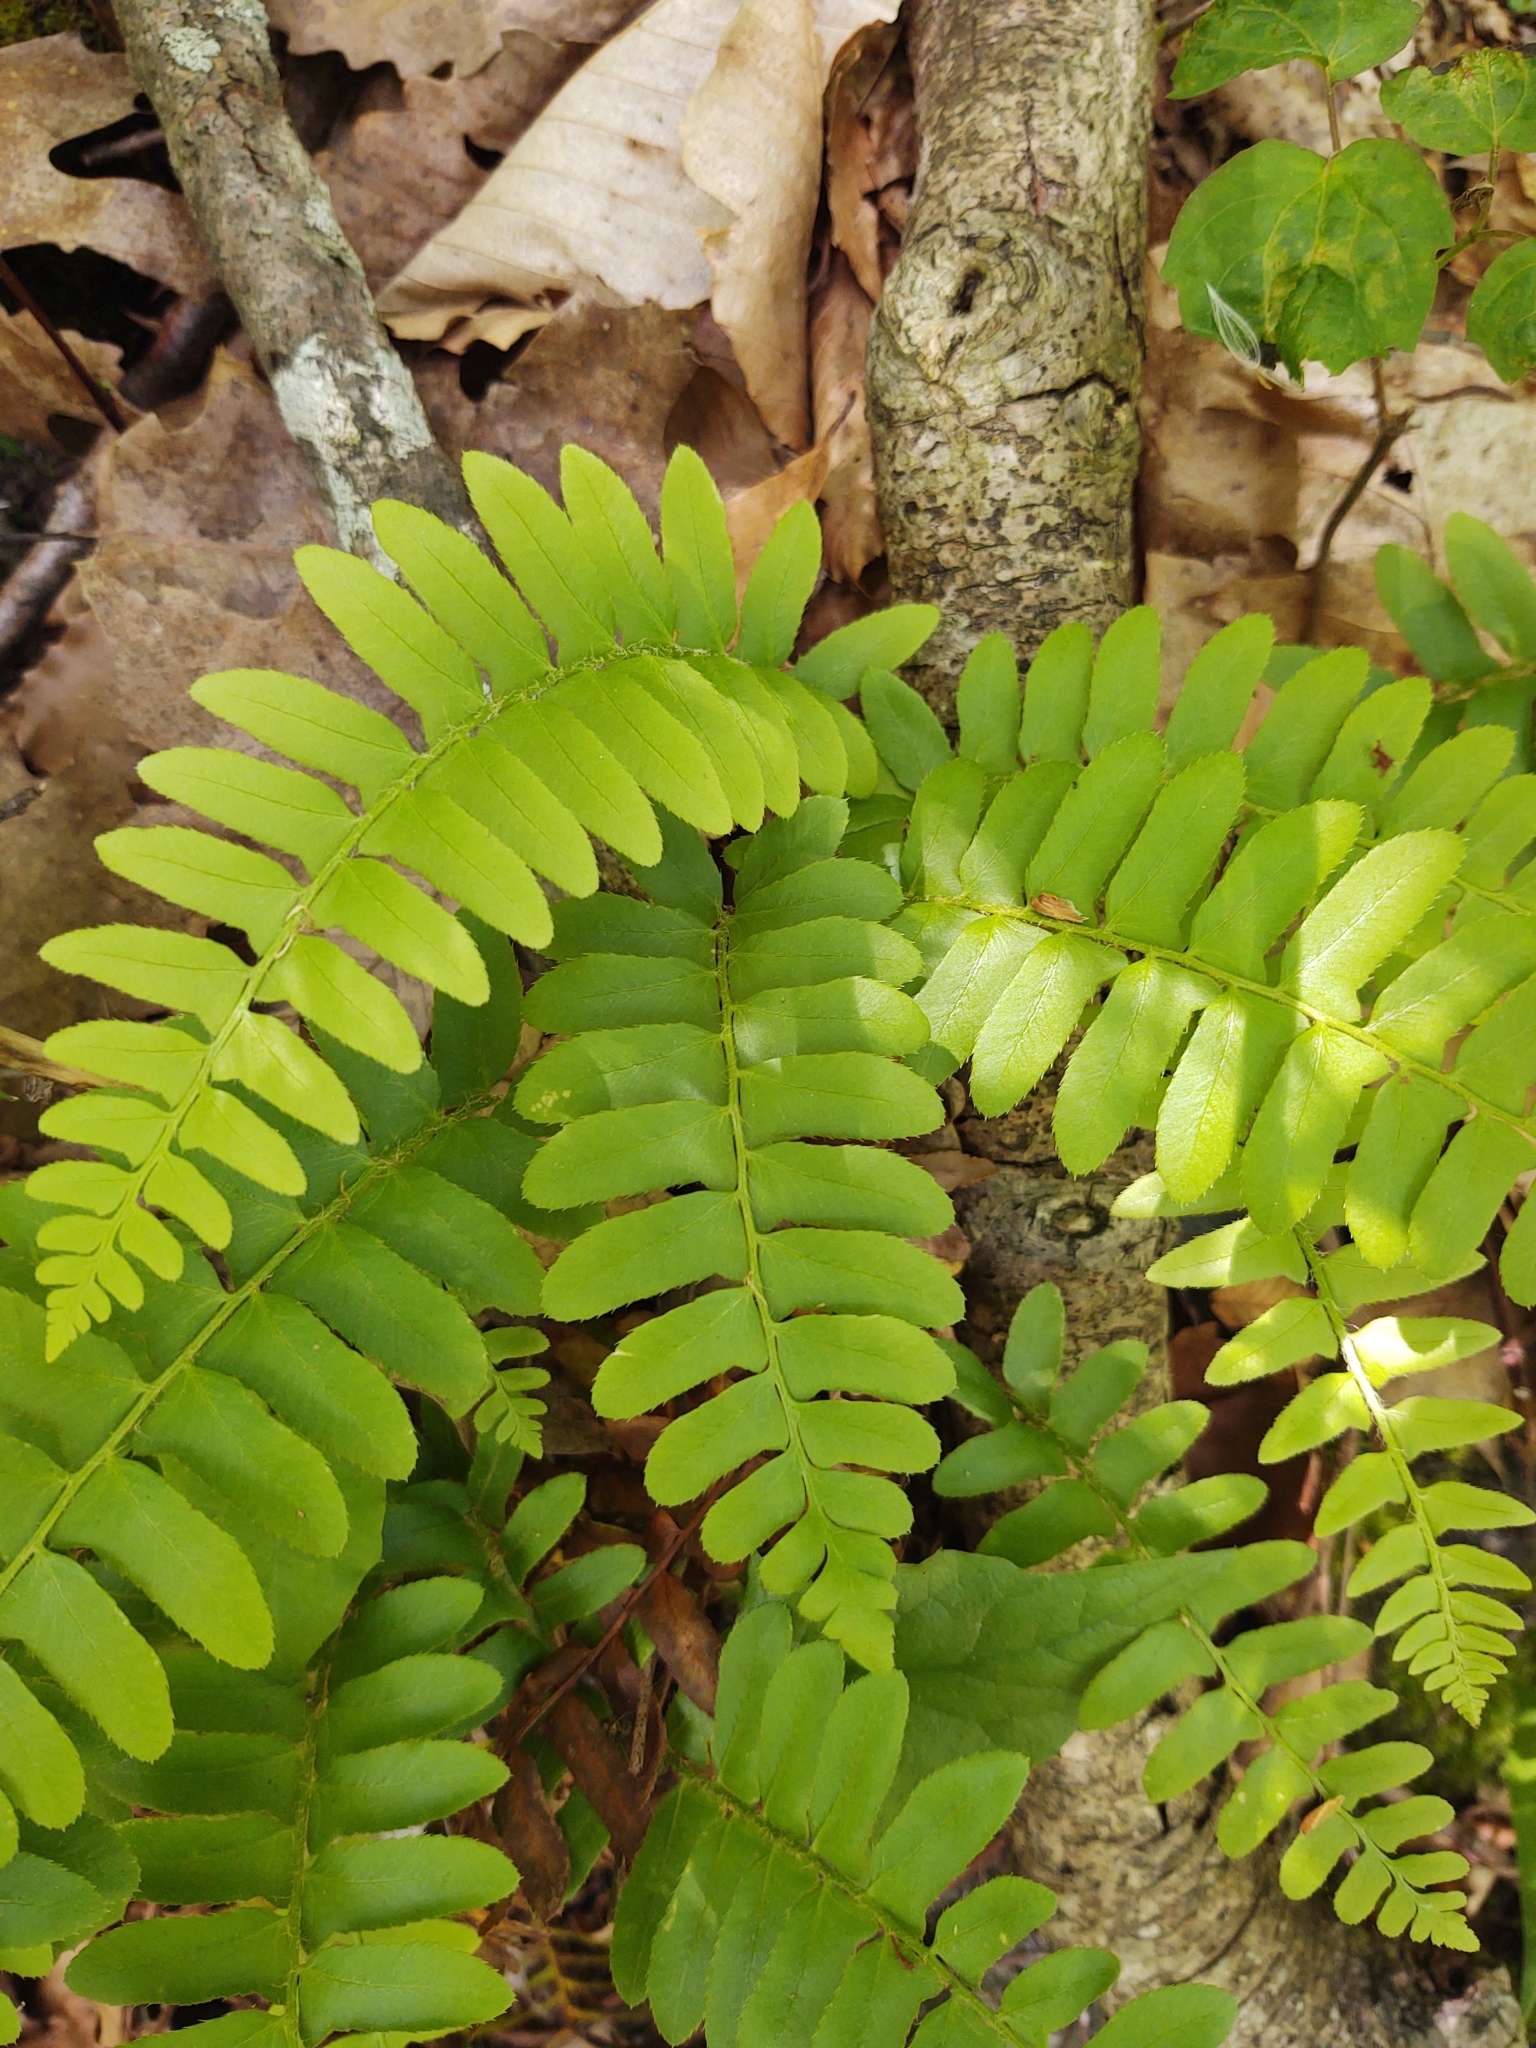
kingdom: Plantae
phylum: Tracheophyta
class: Polypodiopsida
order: Polypodiales
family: Dryopteridaceae
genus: Polystichum
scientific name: Polystichum acrostichoides
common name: Christmas fern
